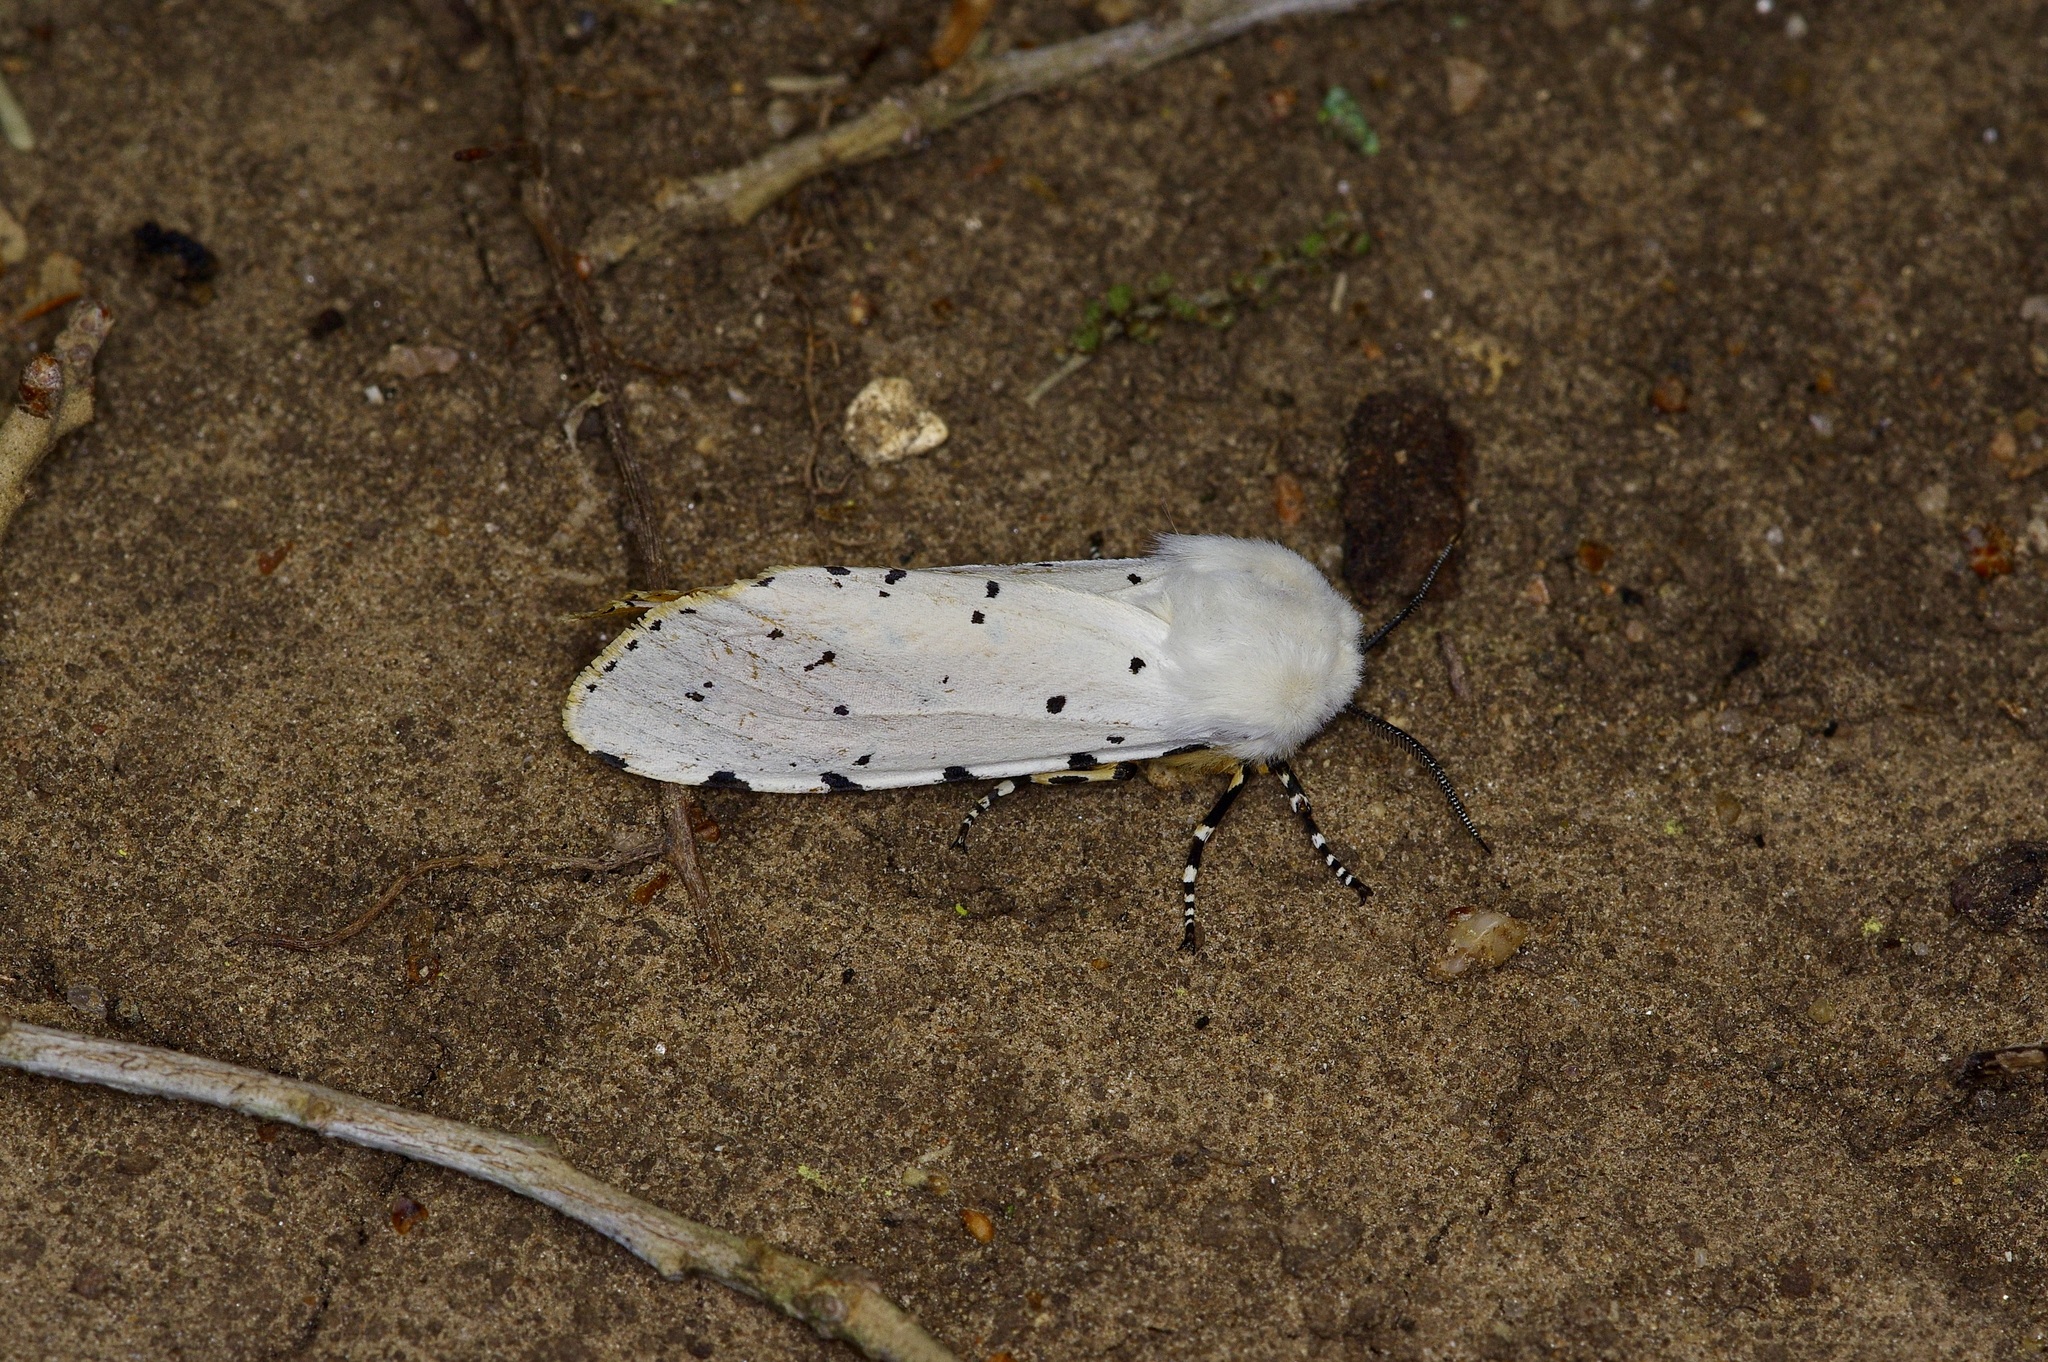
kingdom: Animalia
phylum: Arthropoda
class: Insecta
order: Lepidoptera
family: Erebidae
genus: Estigmene
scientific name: Estigmene acrea
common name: Salt marsh moth
